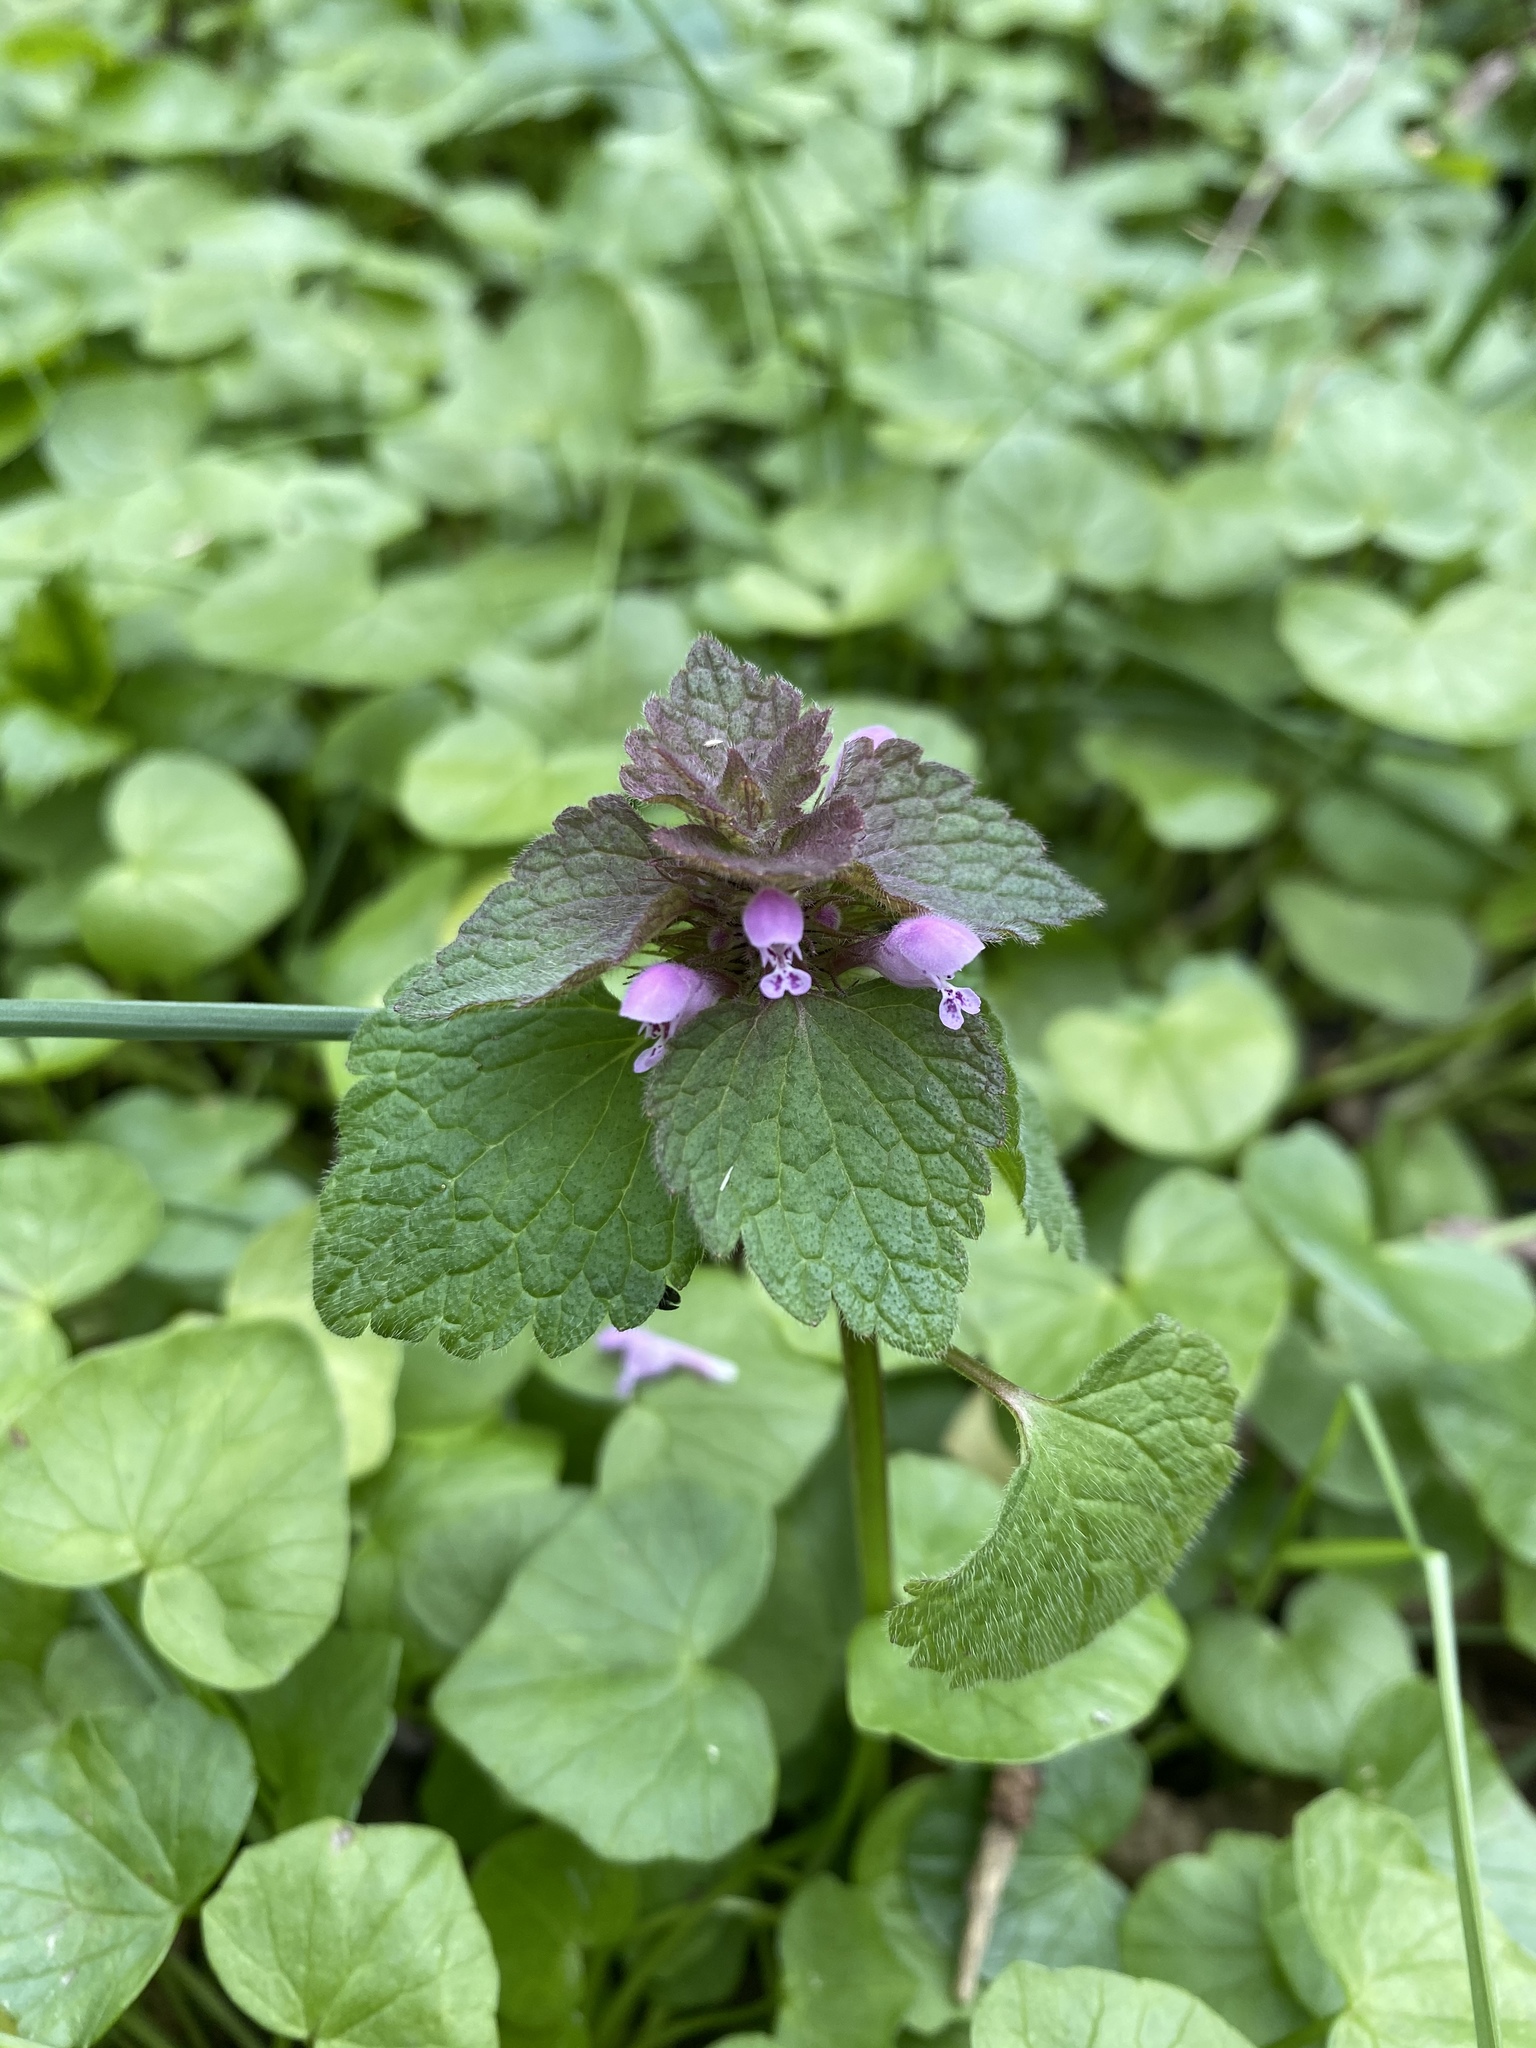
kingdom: Plantae
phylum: Tracheophyta
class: Magnoliopsida
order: Lamiales
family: Lamiaceae
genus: Lamium
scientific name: Lamium purpureum
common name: Red dead-nettle
